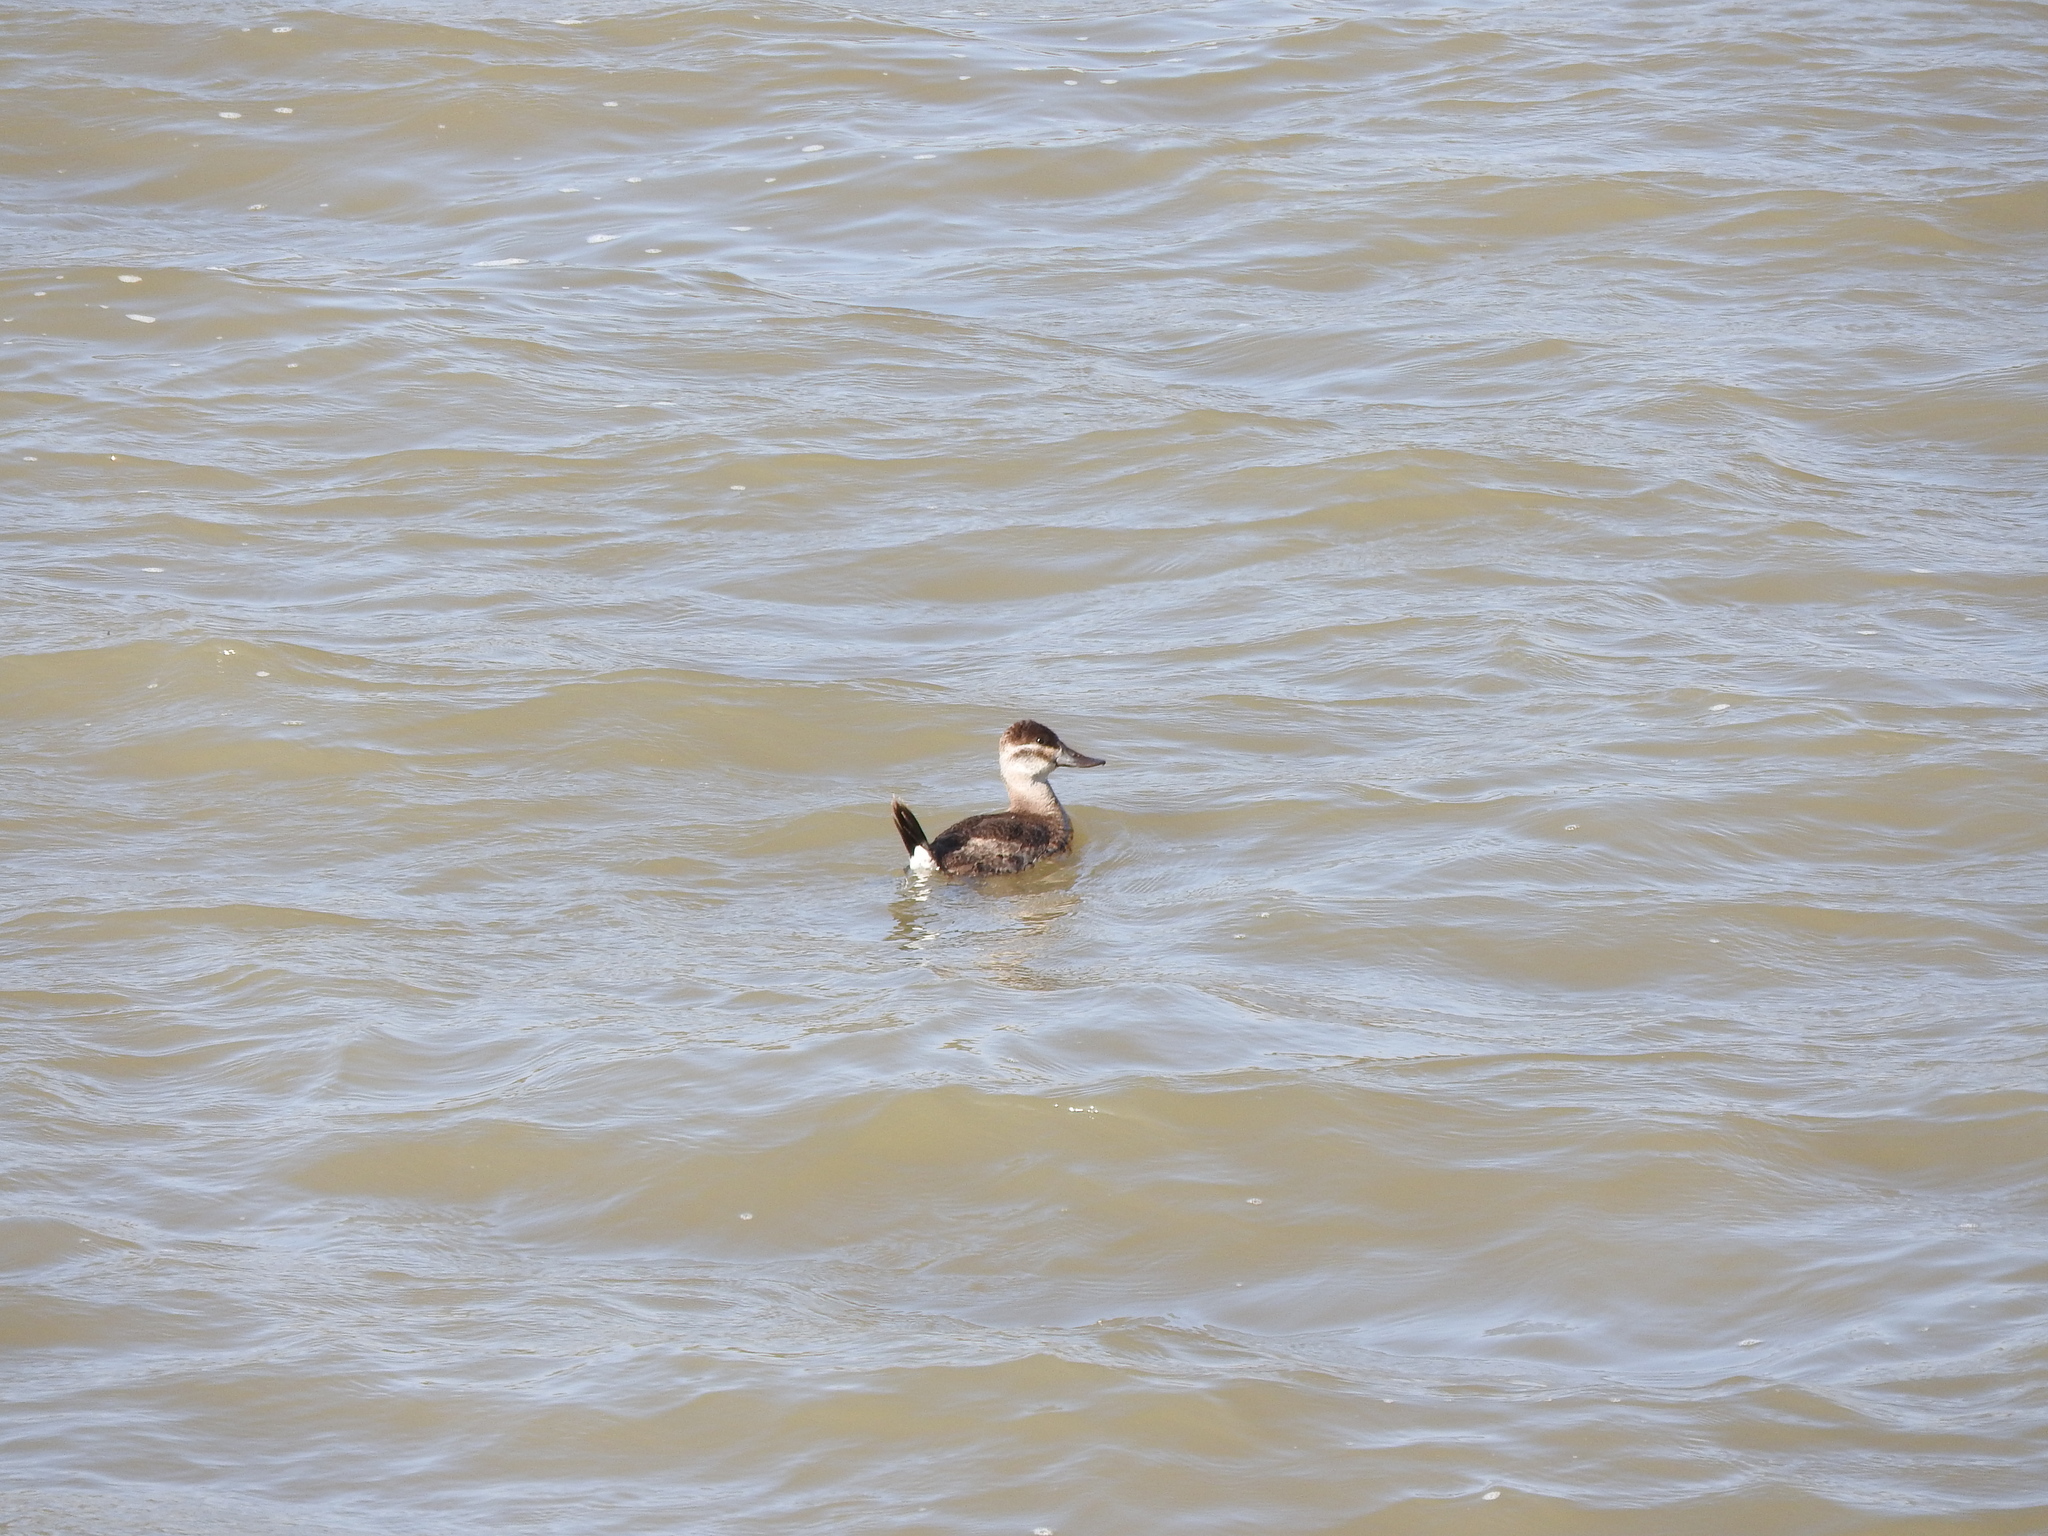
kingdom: Animalia
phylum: Chordata
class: Aves
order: Anseriformes
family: Anatidae
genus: Oxyura
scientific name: Oxyura jamaicensis
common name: Ruddy duck
